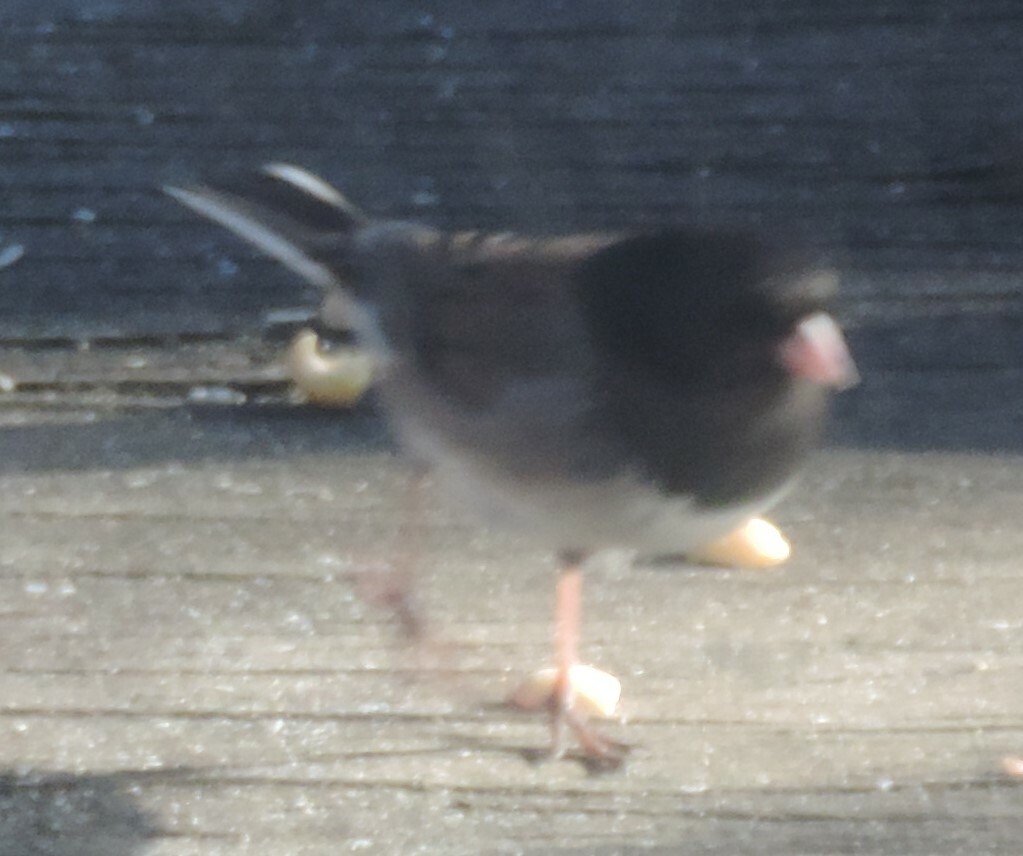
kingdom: Animalia
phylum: Chordata
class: Aves
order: Passeriformes
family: Passerellidae
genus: Junco
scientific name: Junco hyemalis
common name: Dark-eyed junco
